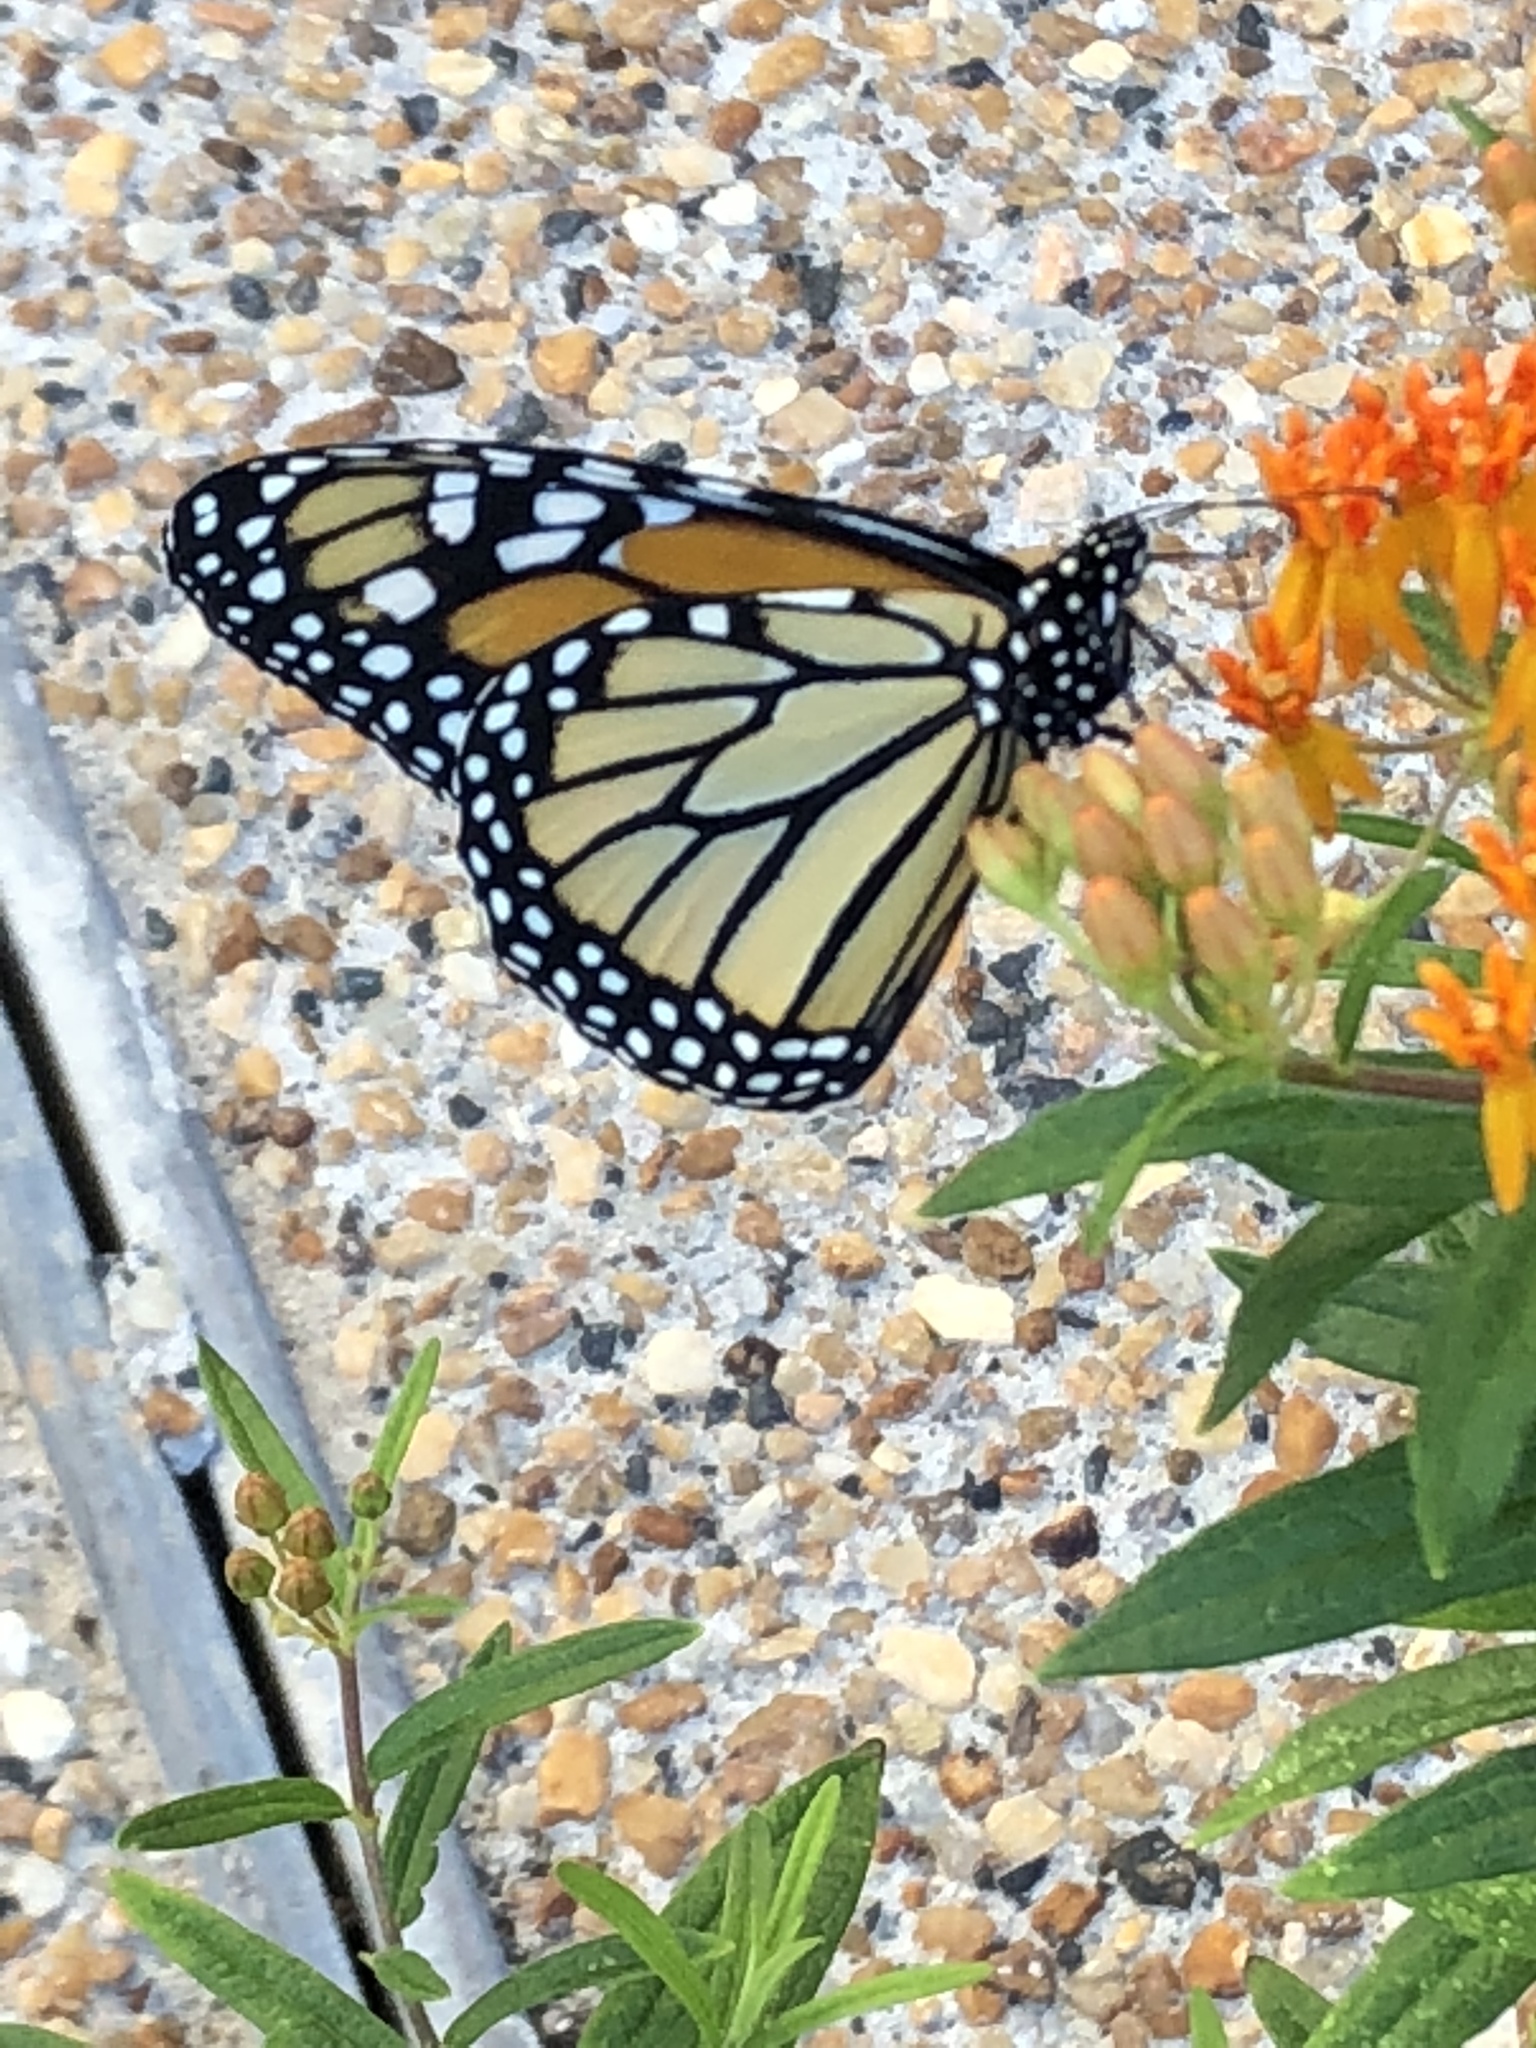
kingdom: Animalia
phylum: Arthropoda
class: Insecta
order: Lepidoptera
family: Nymphalidae
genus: Danaus
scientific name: Danaus plexippus
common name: Monarch
